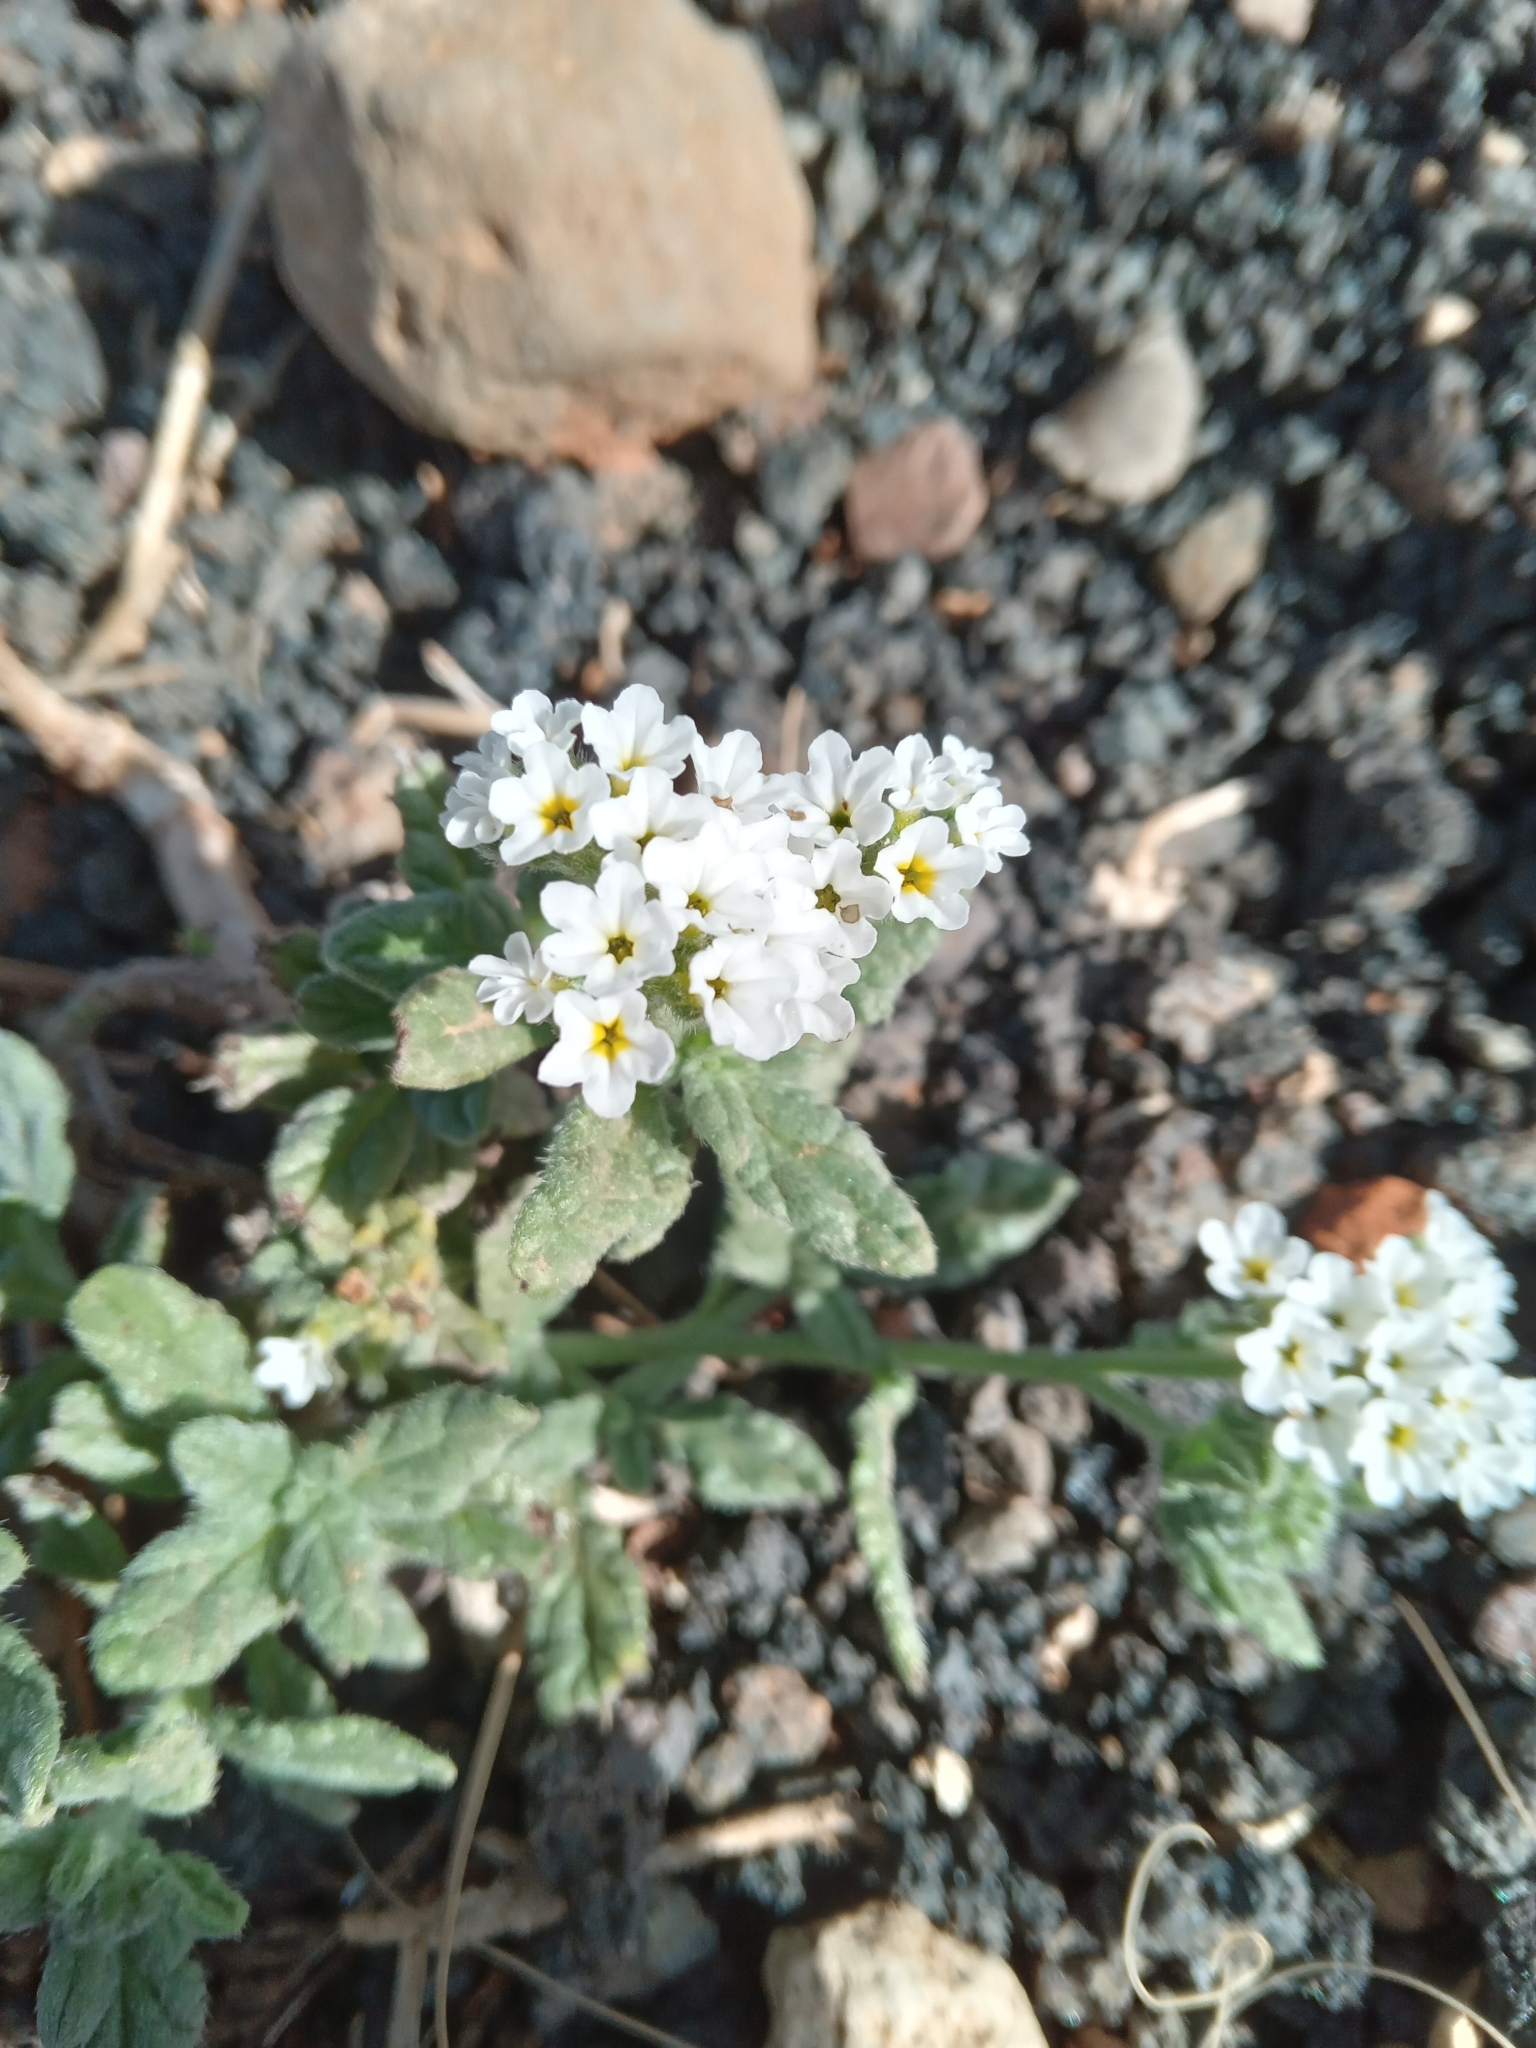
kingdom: Plantae
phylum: Tracheophyta
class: Magnoliopsida
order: Boraginales
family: Heliotropiaceae
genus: Heliotropium
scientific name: Heliotropium ramosissimum
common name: Wavy heliotrope
